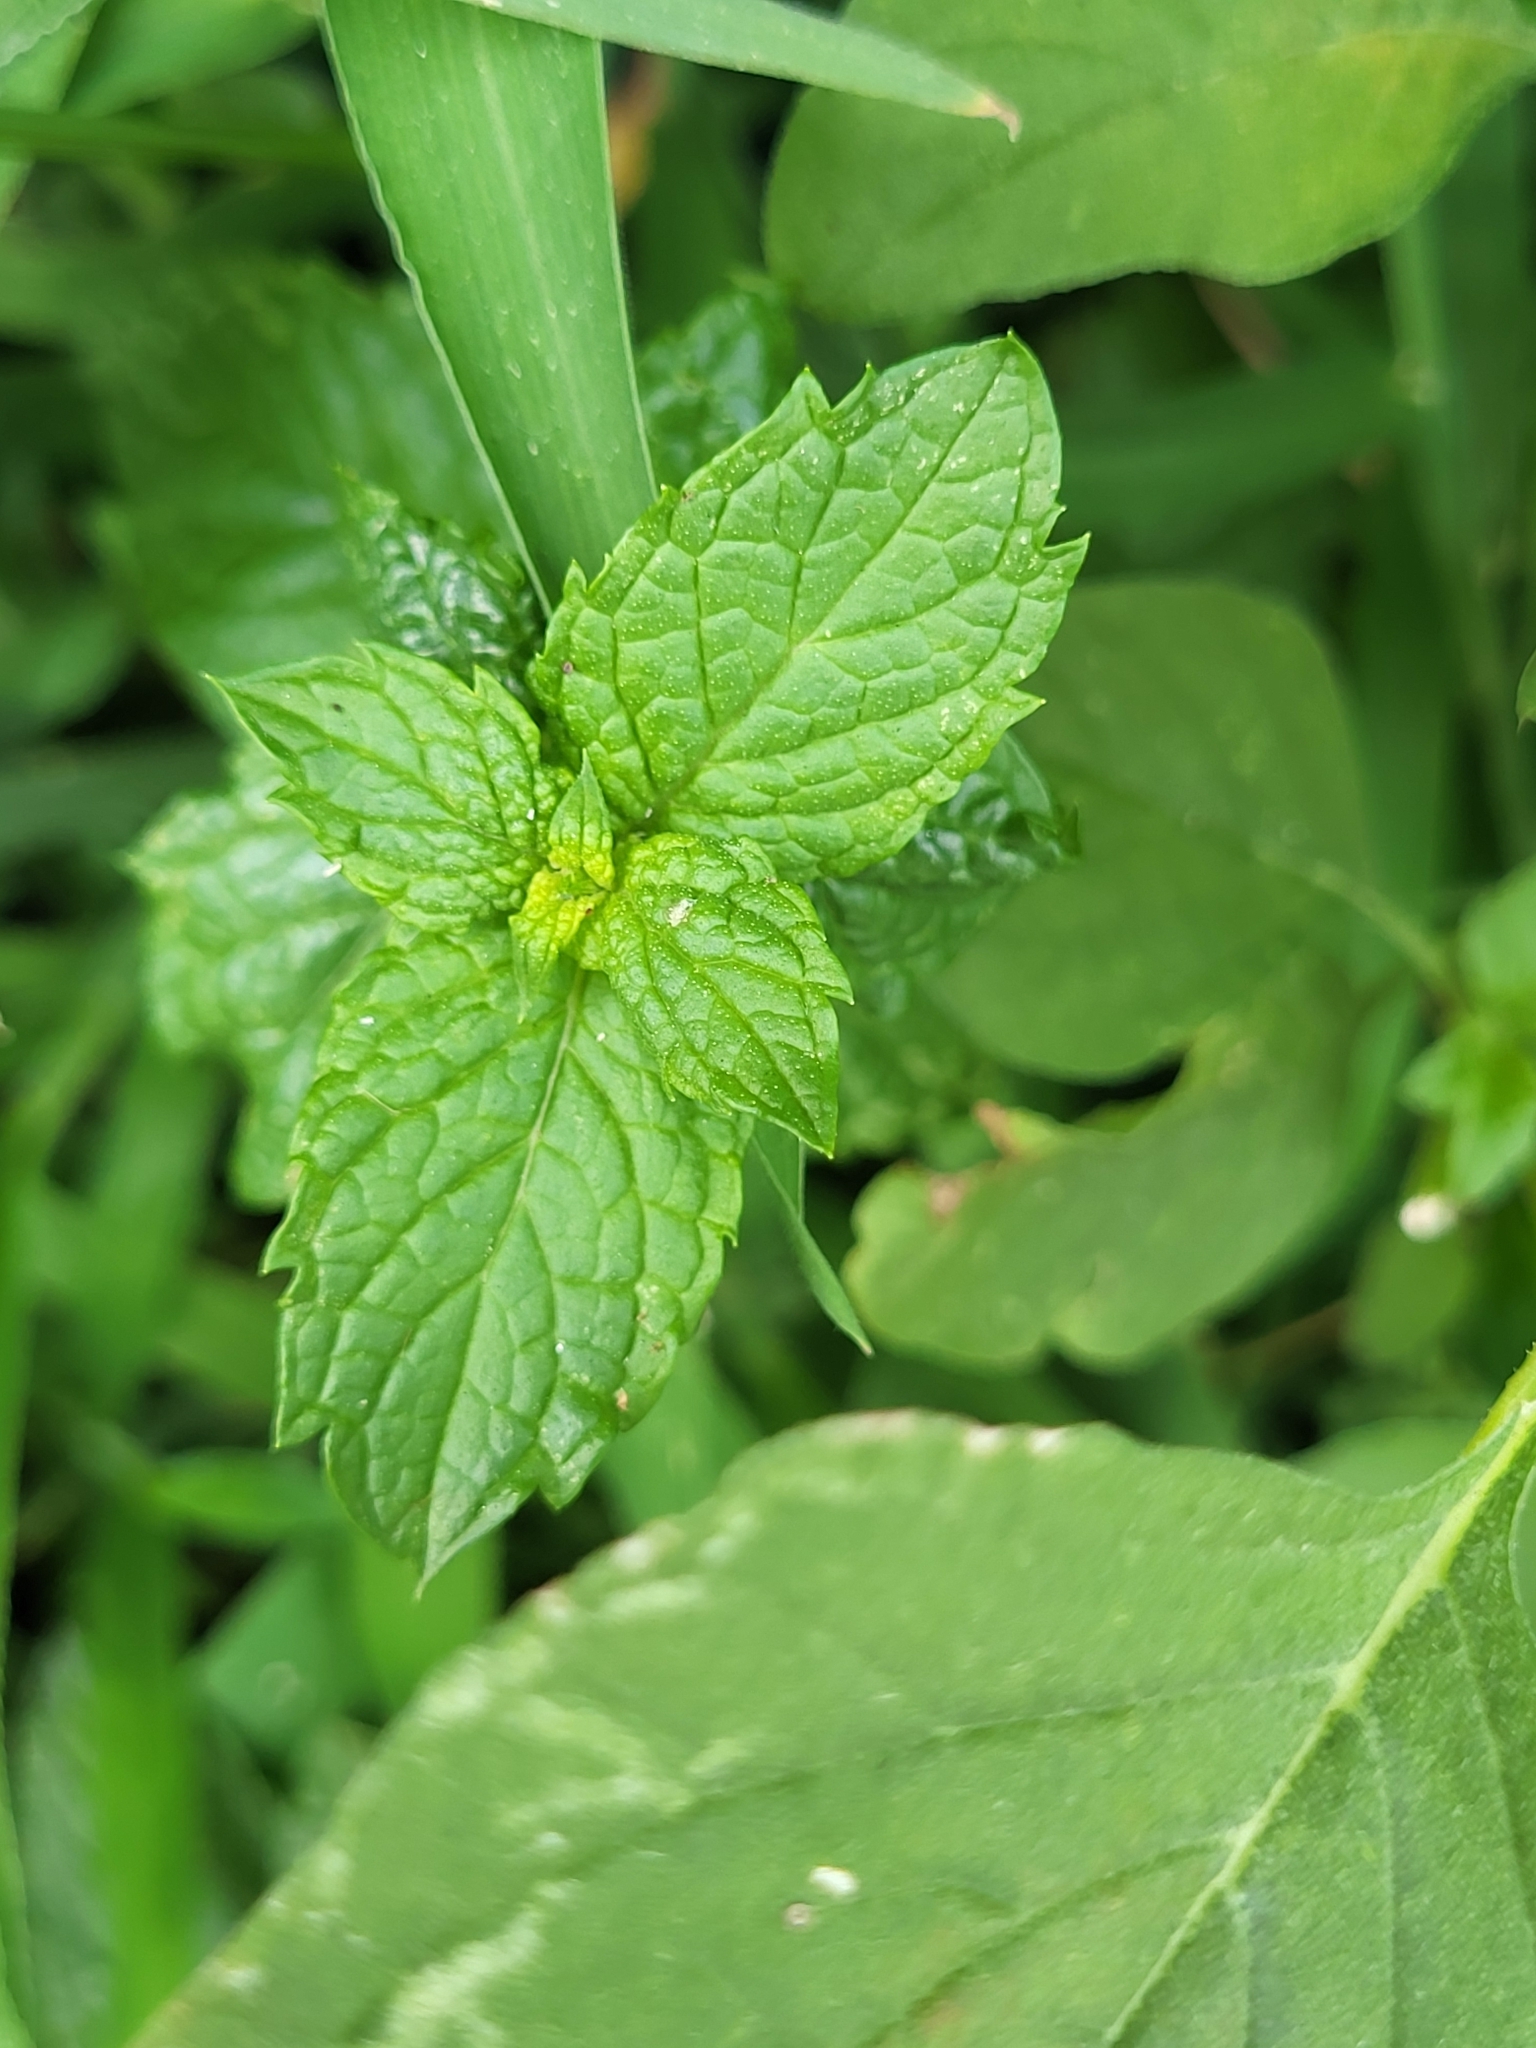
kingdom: Plantae
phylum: Tracheophyta
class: Magnoliopsida
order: Lamiales
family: Lamiaceae
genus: Mentha
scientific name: Mentha spicata
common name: Spearmint
